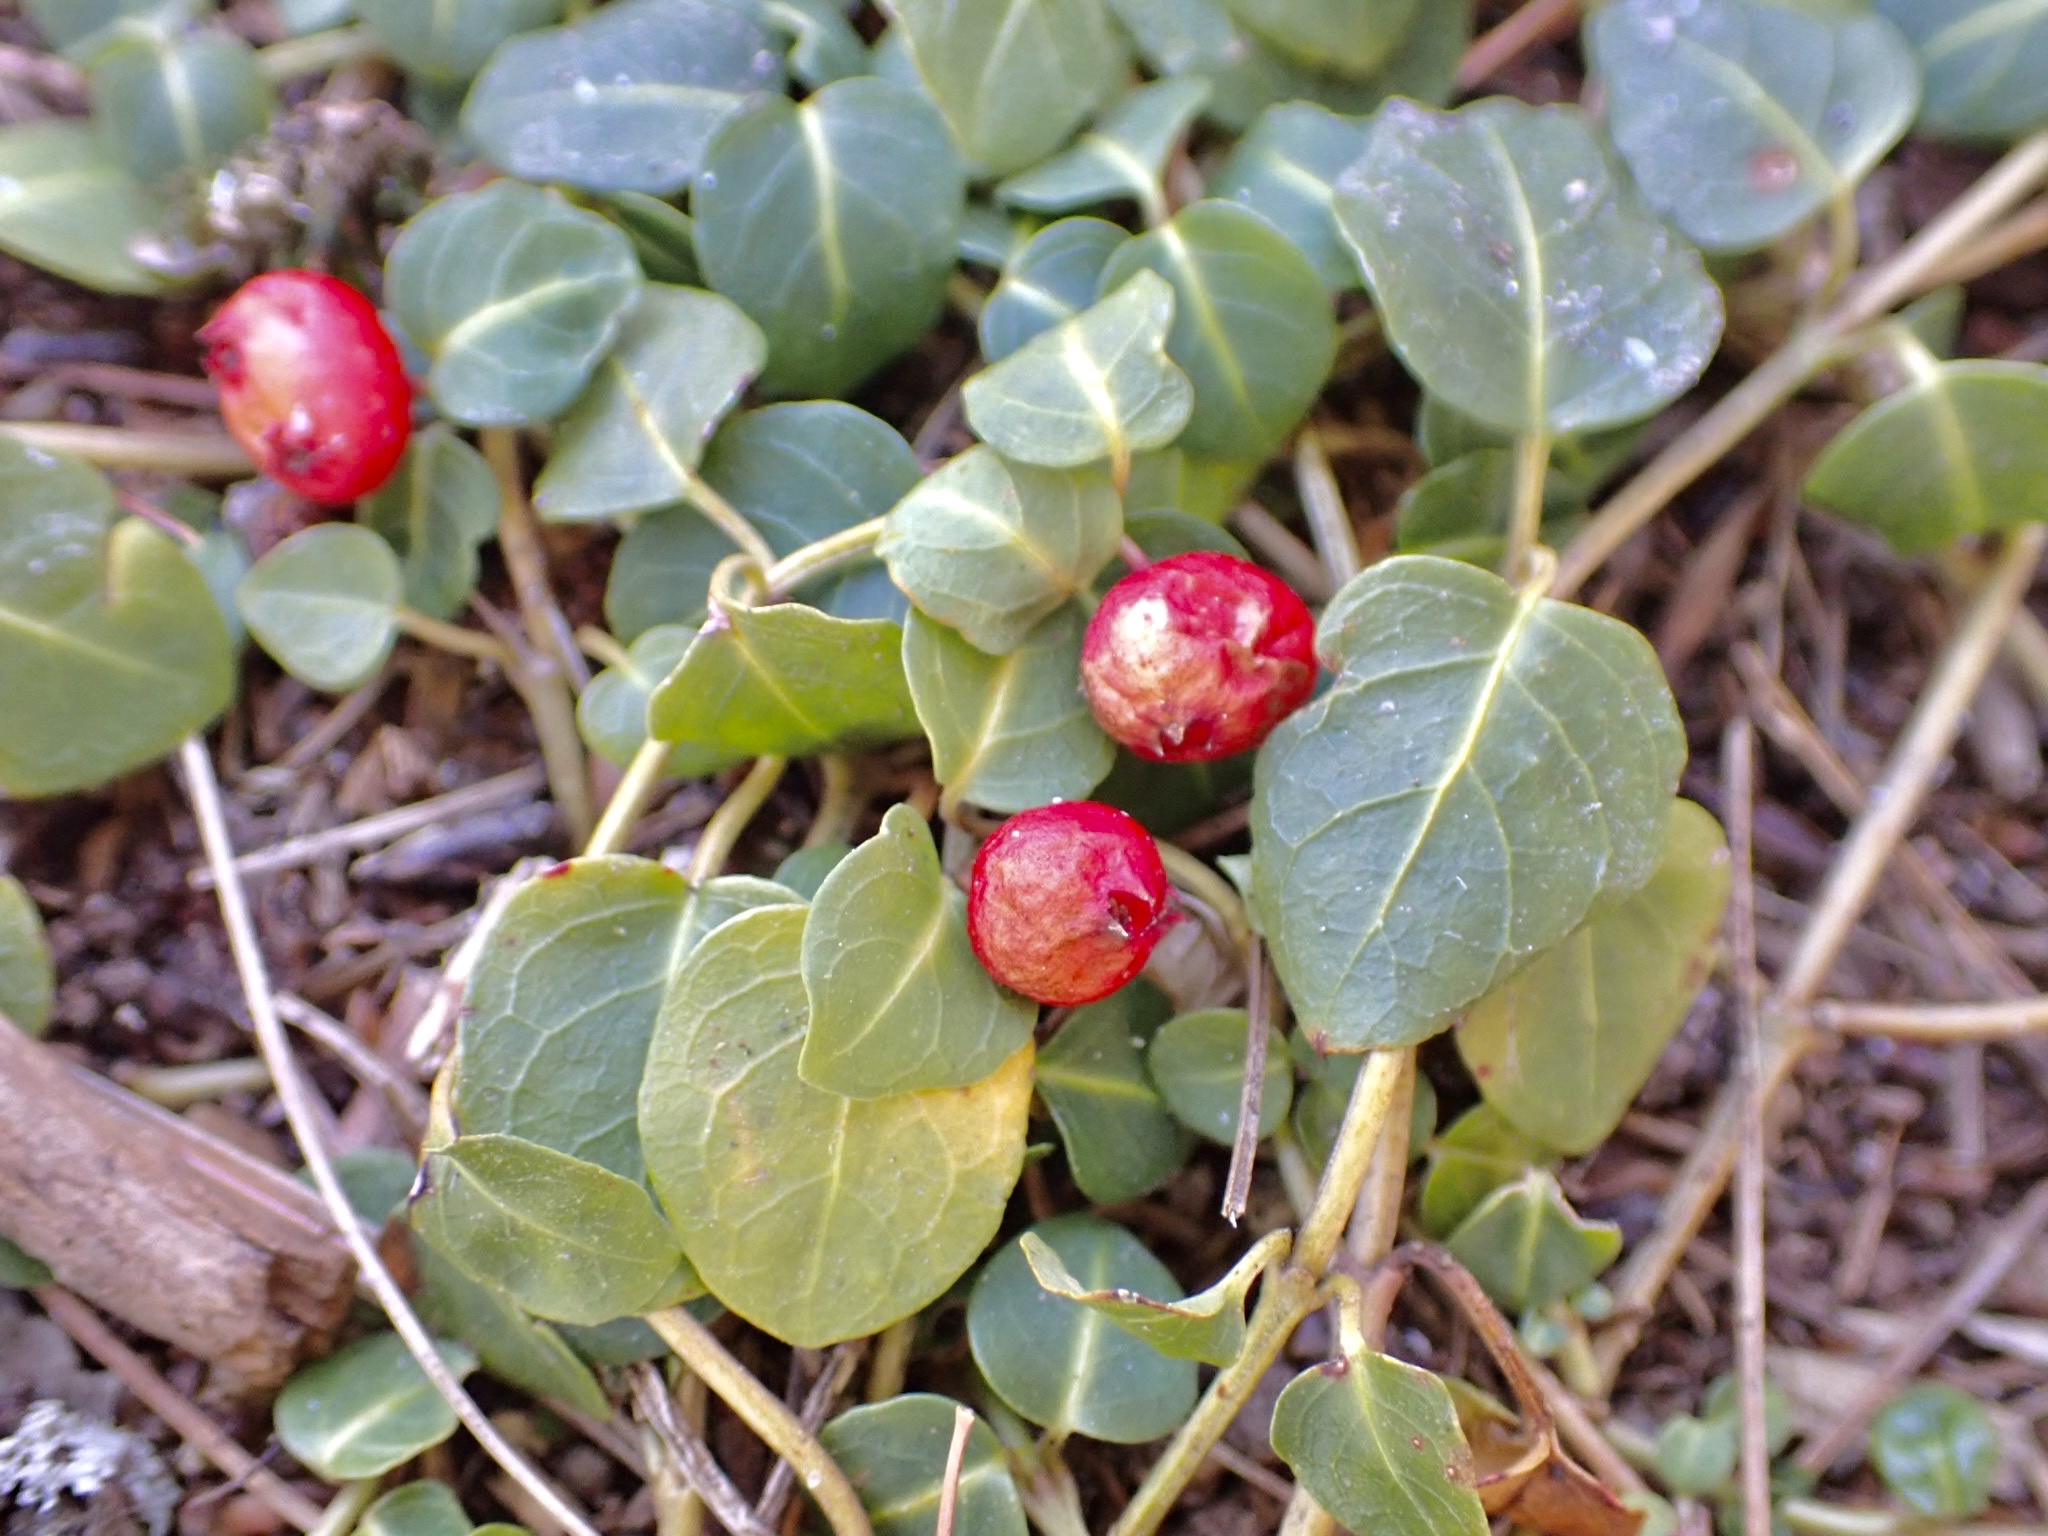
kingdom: Plantae
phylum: Tracheophyta
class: Magnoliopsida
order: Gentianales
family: Rubiaceae
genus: Mitchella
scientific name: Mitchella repens
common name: Partridge-berry
